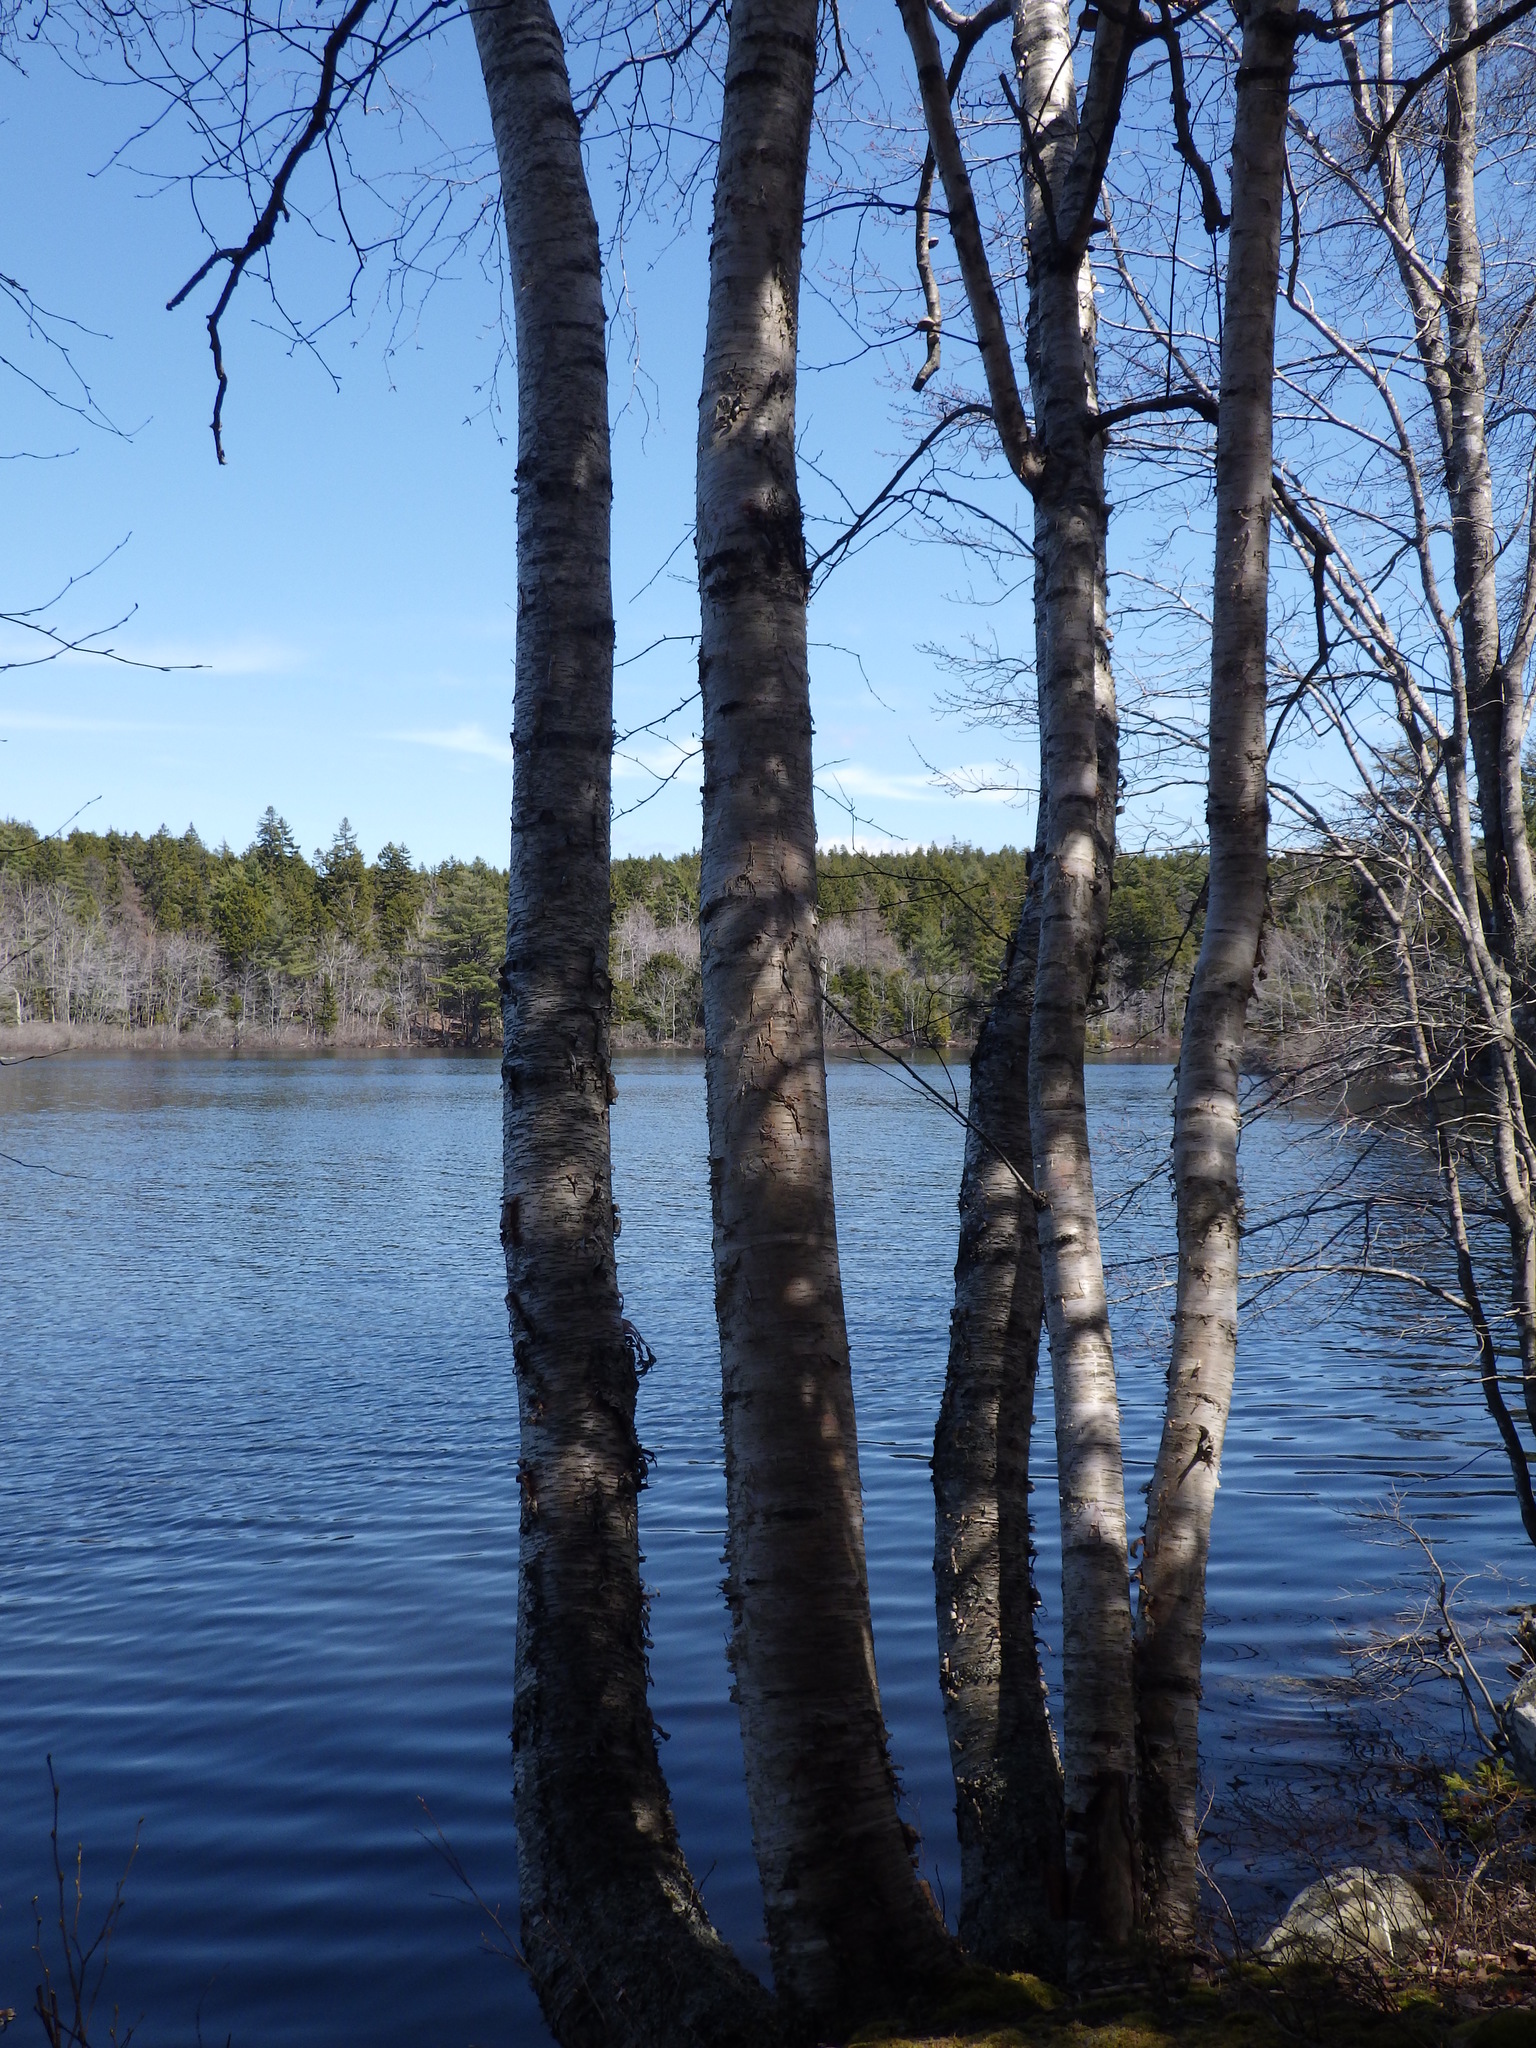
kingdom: Plantae
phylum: Tracheophyta
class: Magnoliopsida
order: Fagales
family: Betulaceae
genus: Betula
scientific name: Betula papyrifera
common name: Paper birch
